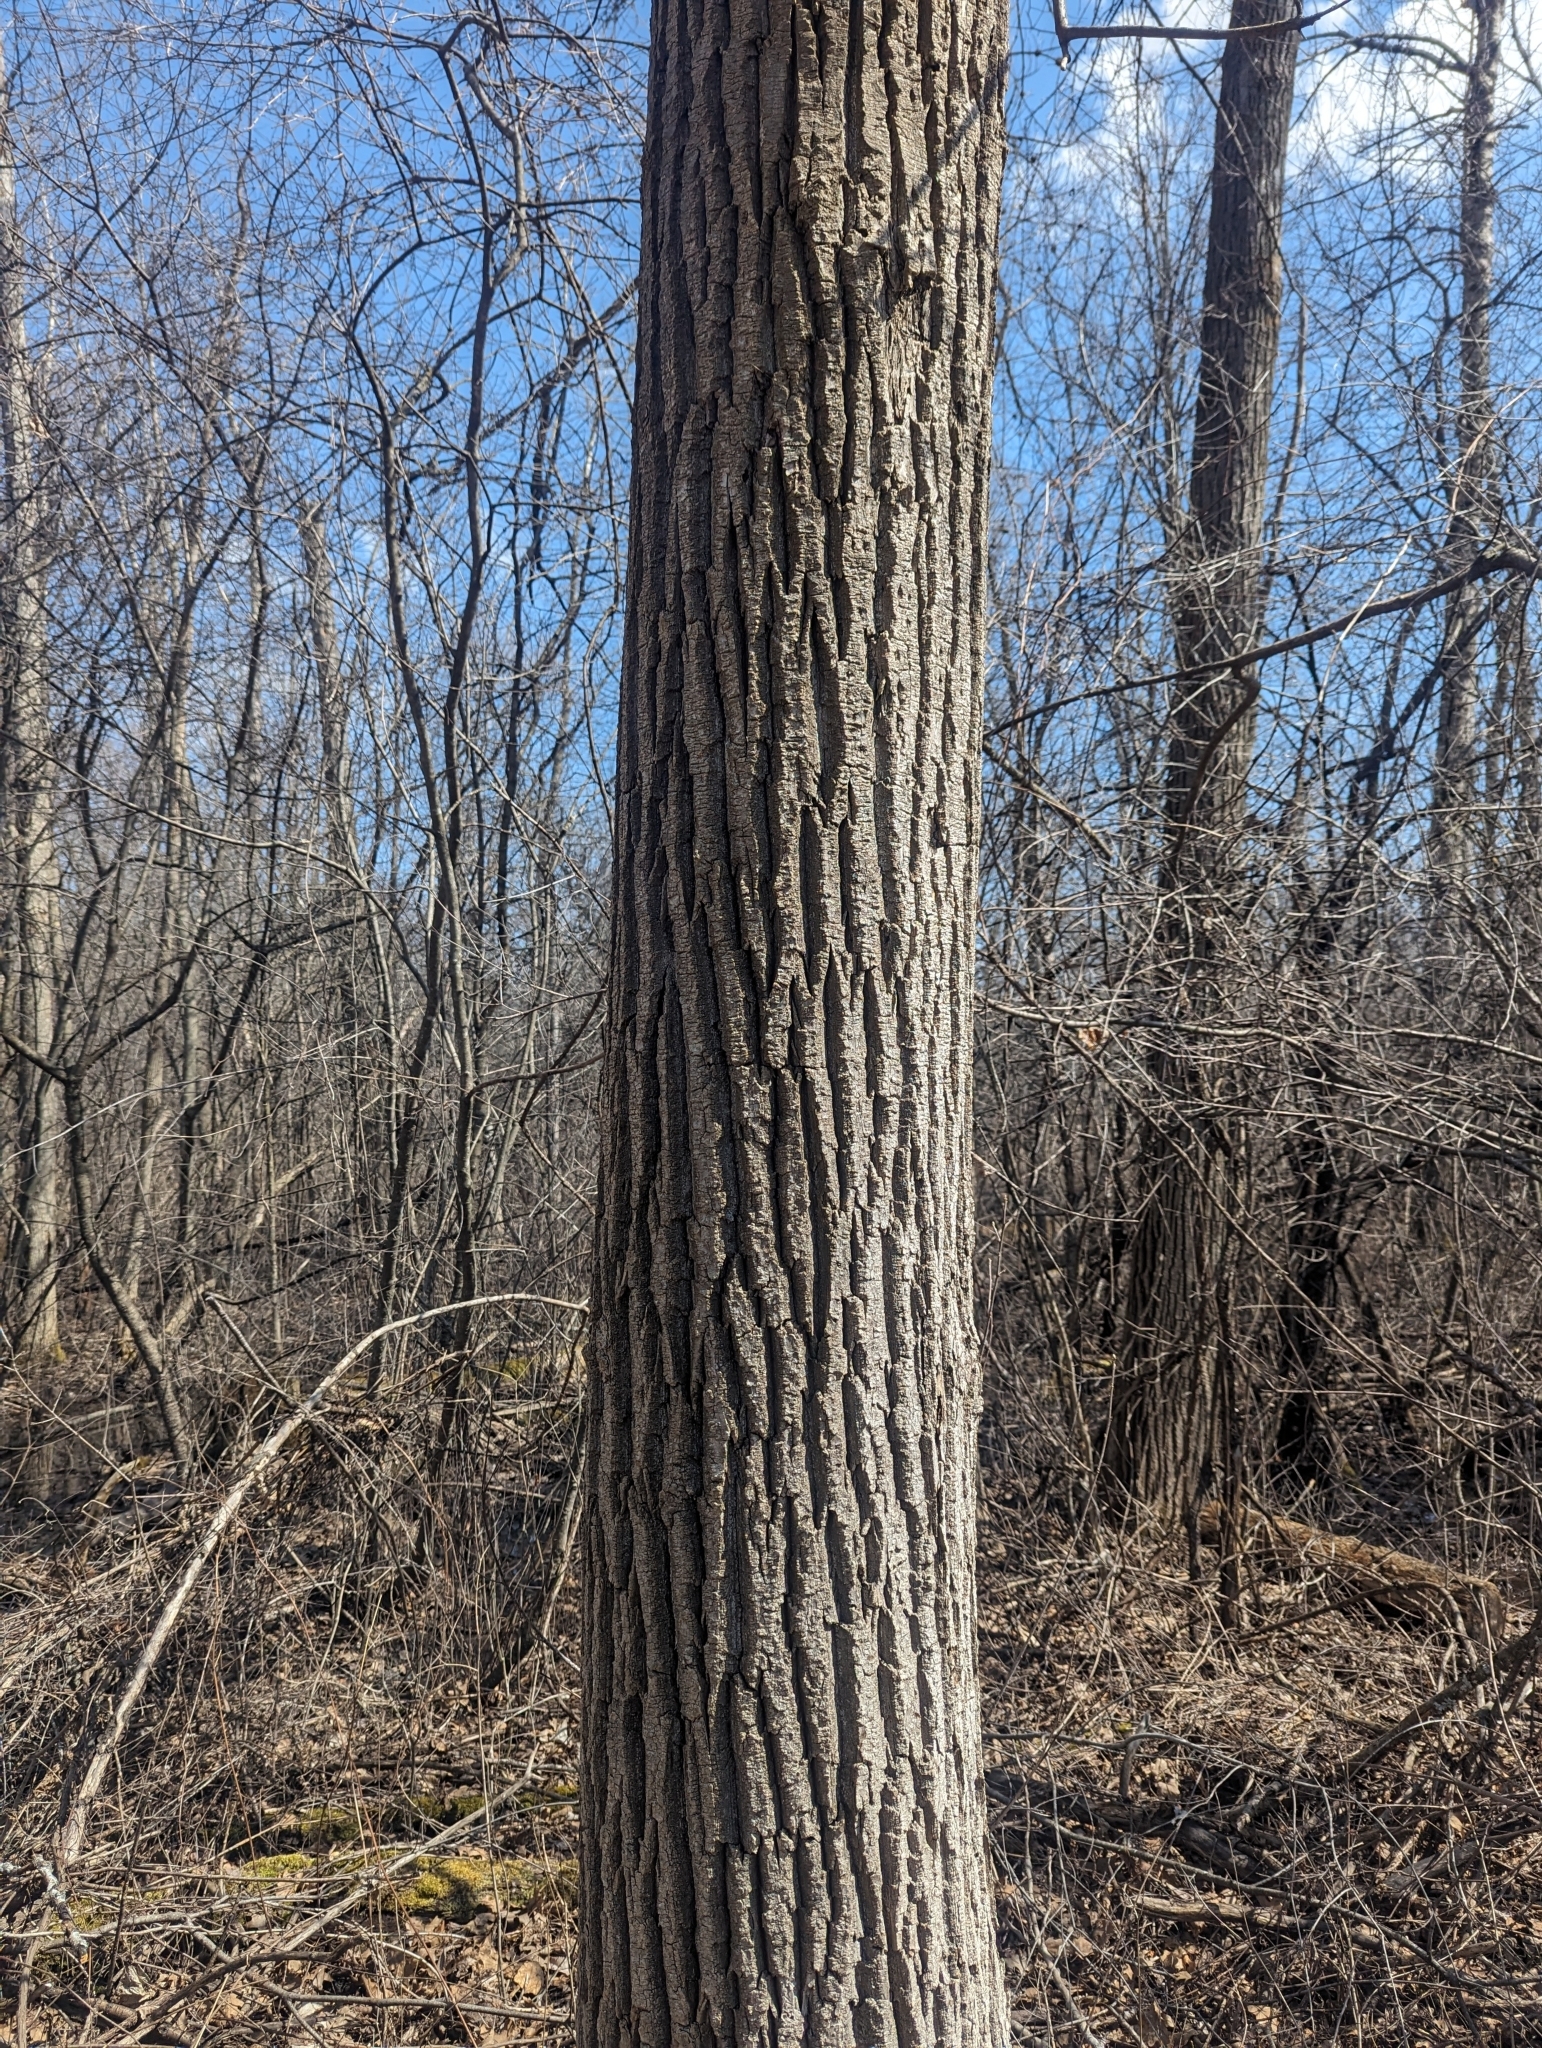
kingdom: Plantae
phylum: Tracheophyta
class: Magnoliopsida
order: Fagales
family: Fagaceae
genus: Quercus
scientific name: Quercus rubra
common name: Red oak
